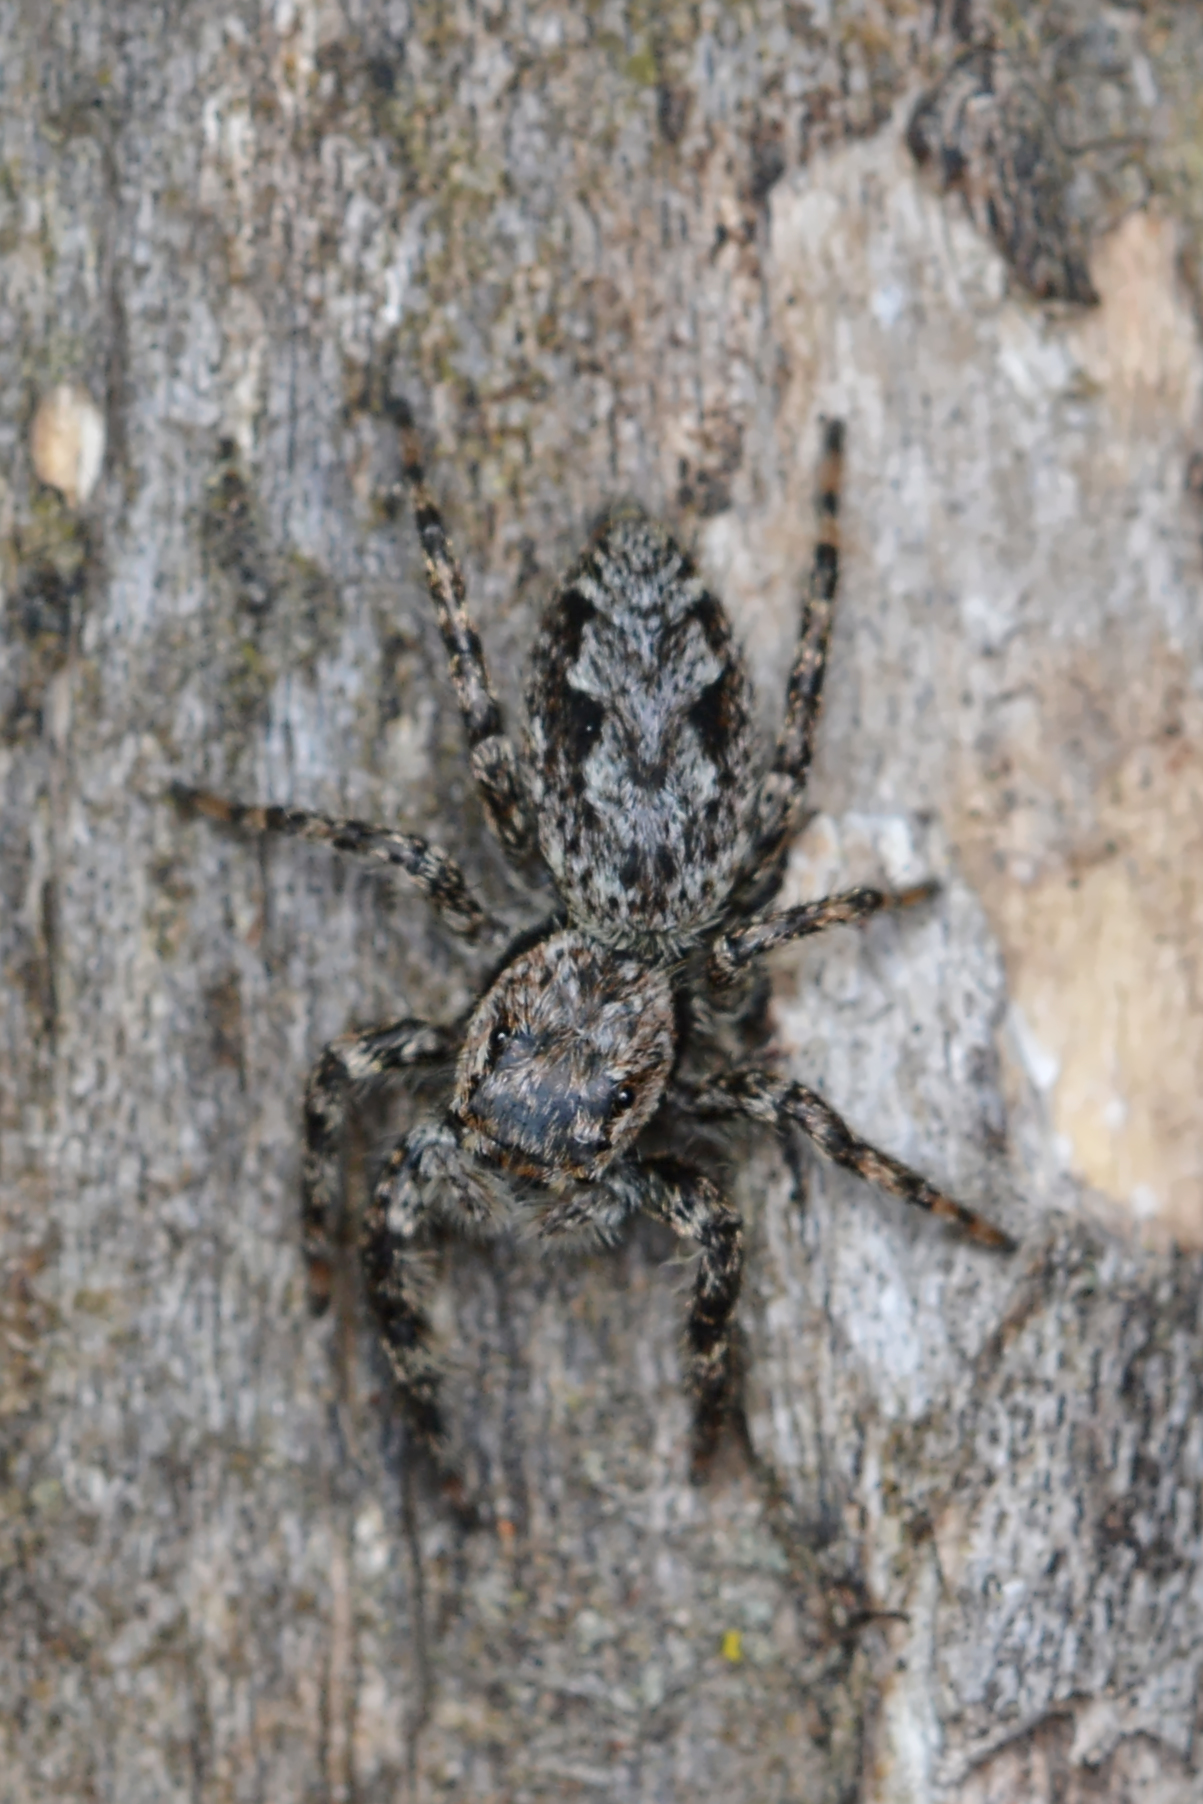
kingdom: Animalia
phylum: Arthropoda
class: Arachnida
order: Araneae
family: Salticidae
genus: Platycryptus
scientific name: Platycryptus undatus
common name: Tan jumping spider
